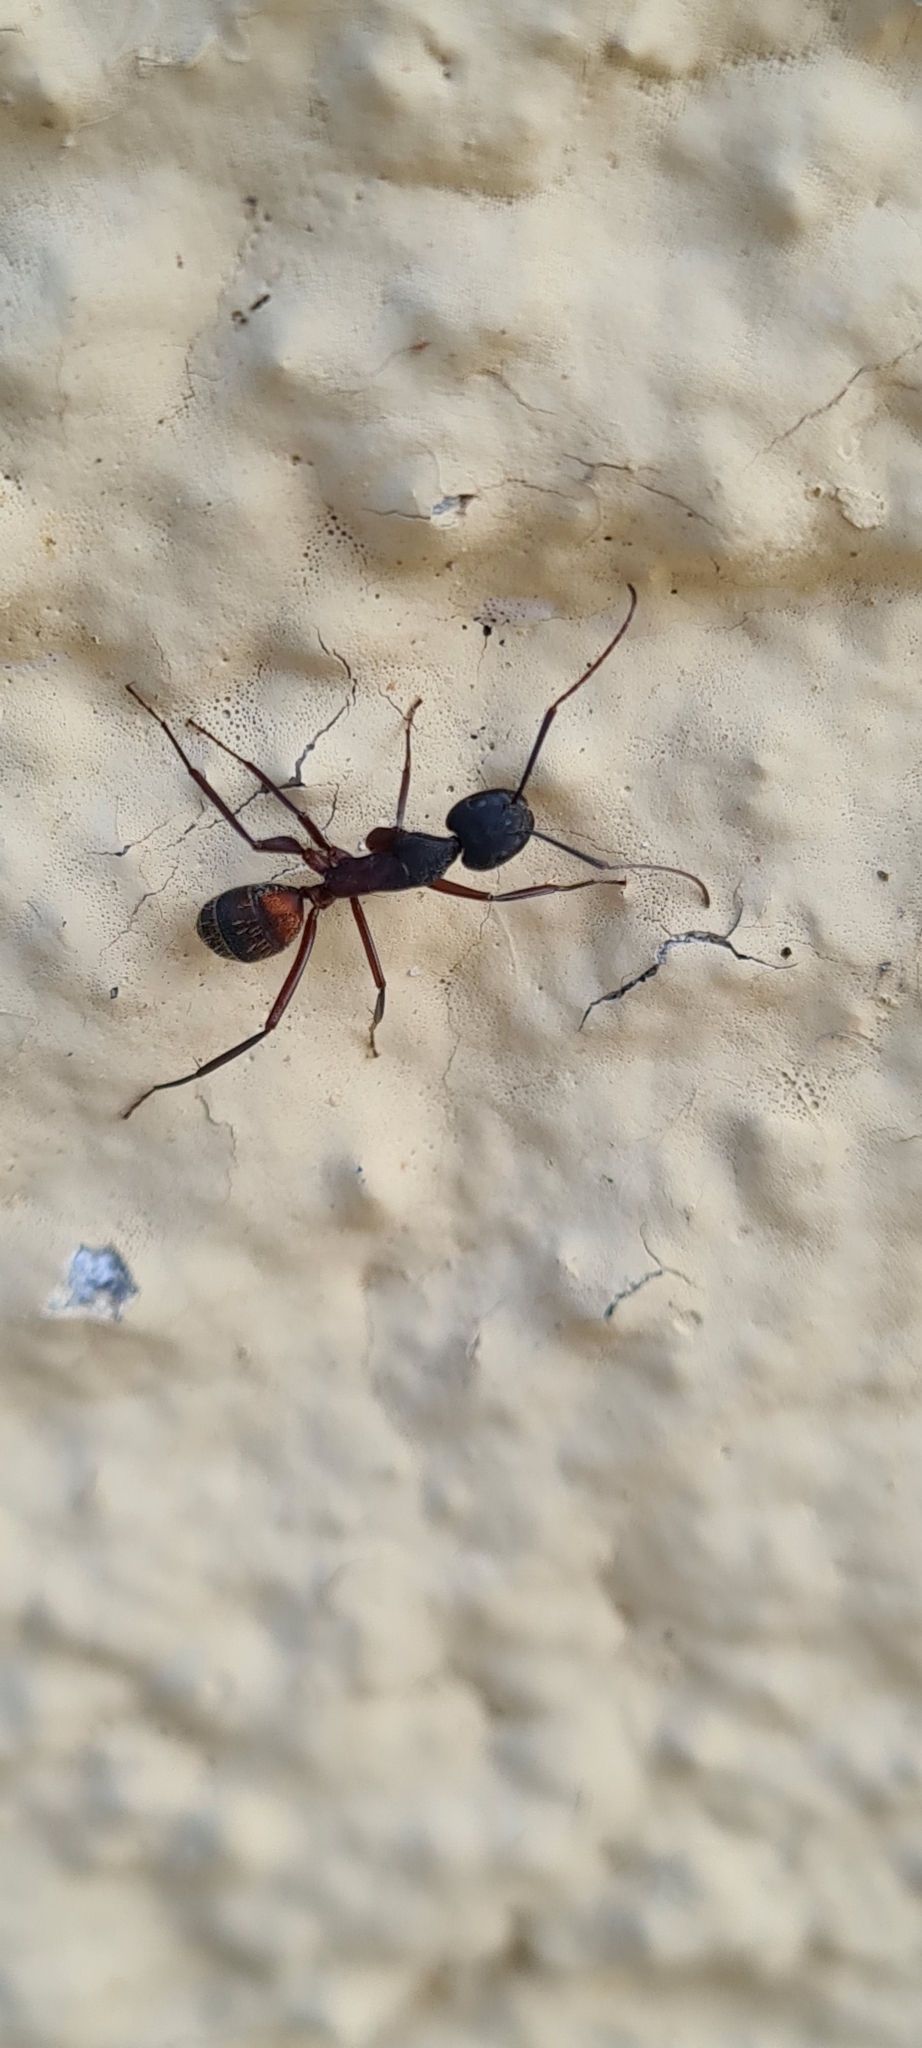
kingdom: Animalia
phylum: Arthropoda
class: Insecta
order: Hymenoptera
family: Formicidae
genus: Camponotus
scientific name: Camponotus cruentatus
